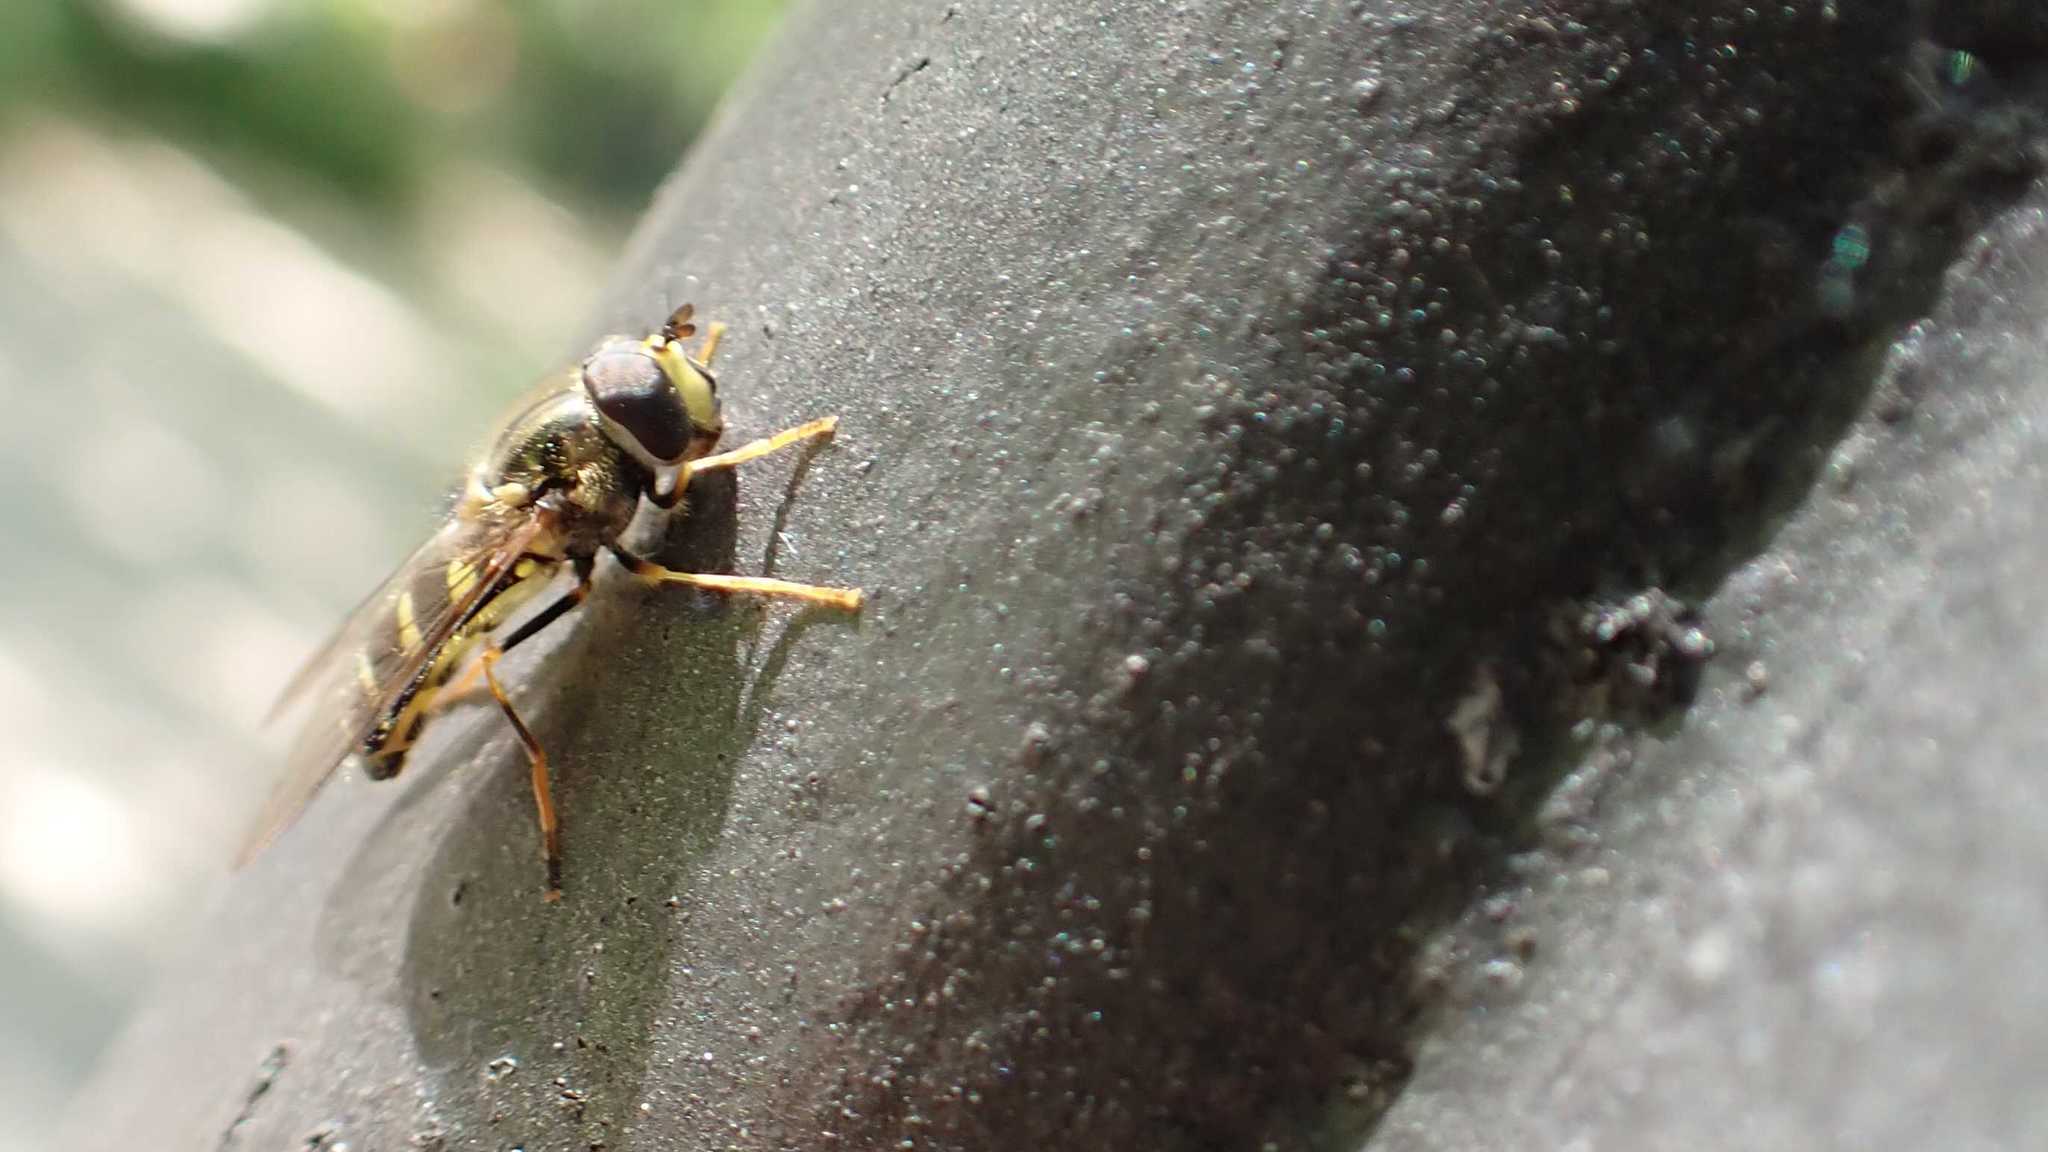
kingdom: Animalia
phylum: Arthropoda
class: Insecta
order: Diptera
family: Syrphidae
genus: Dasysyrphus
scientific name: Dasysyrphus albostriatus
